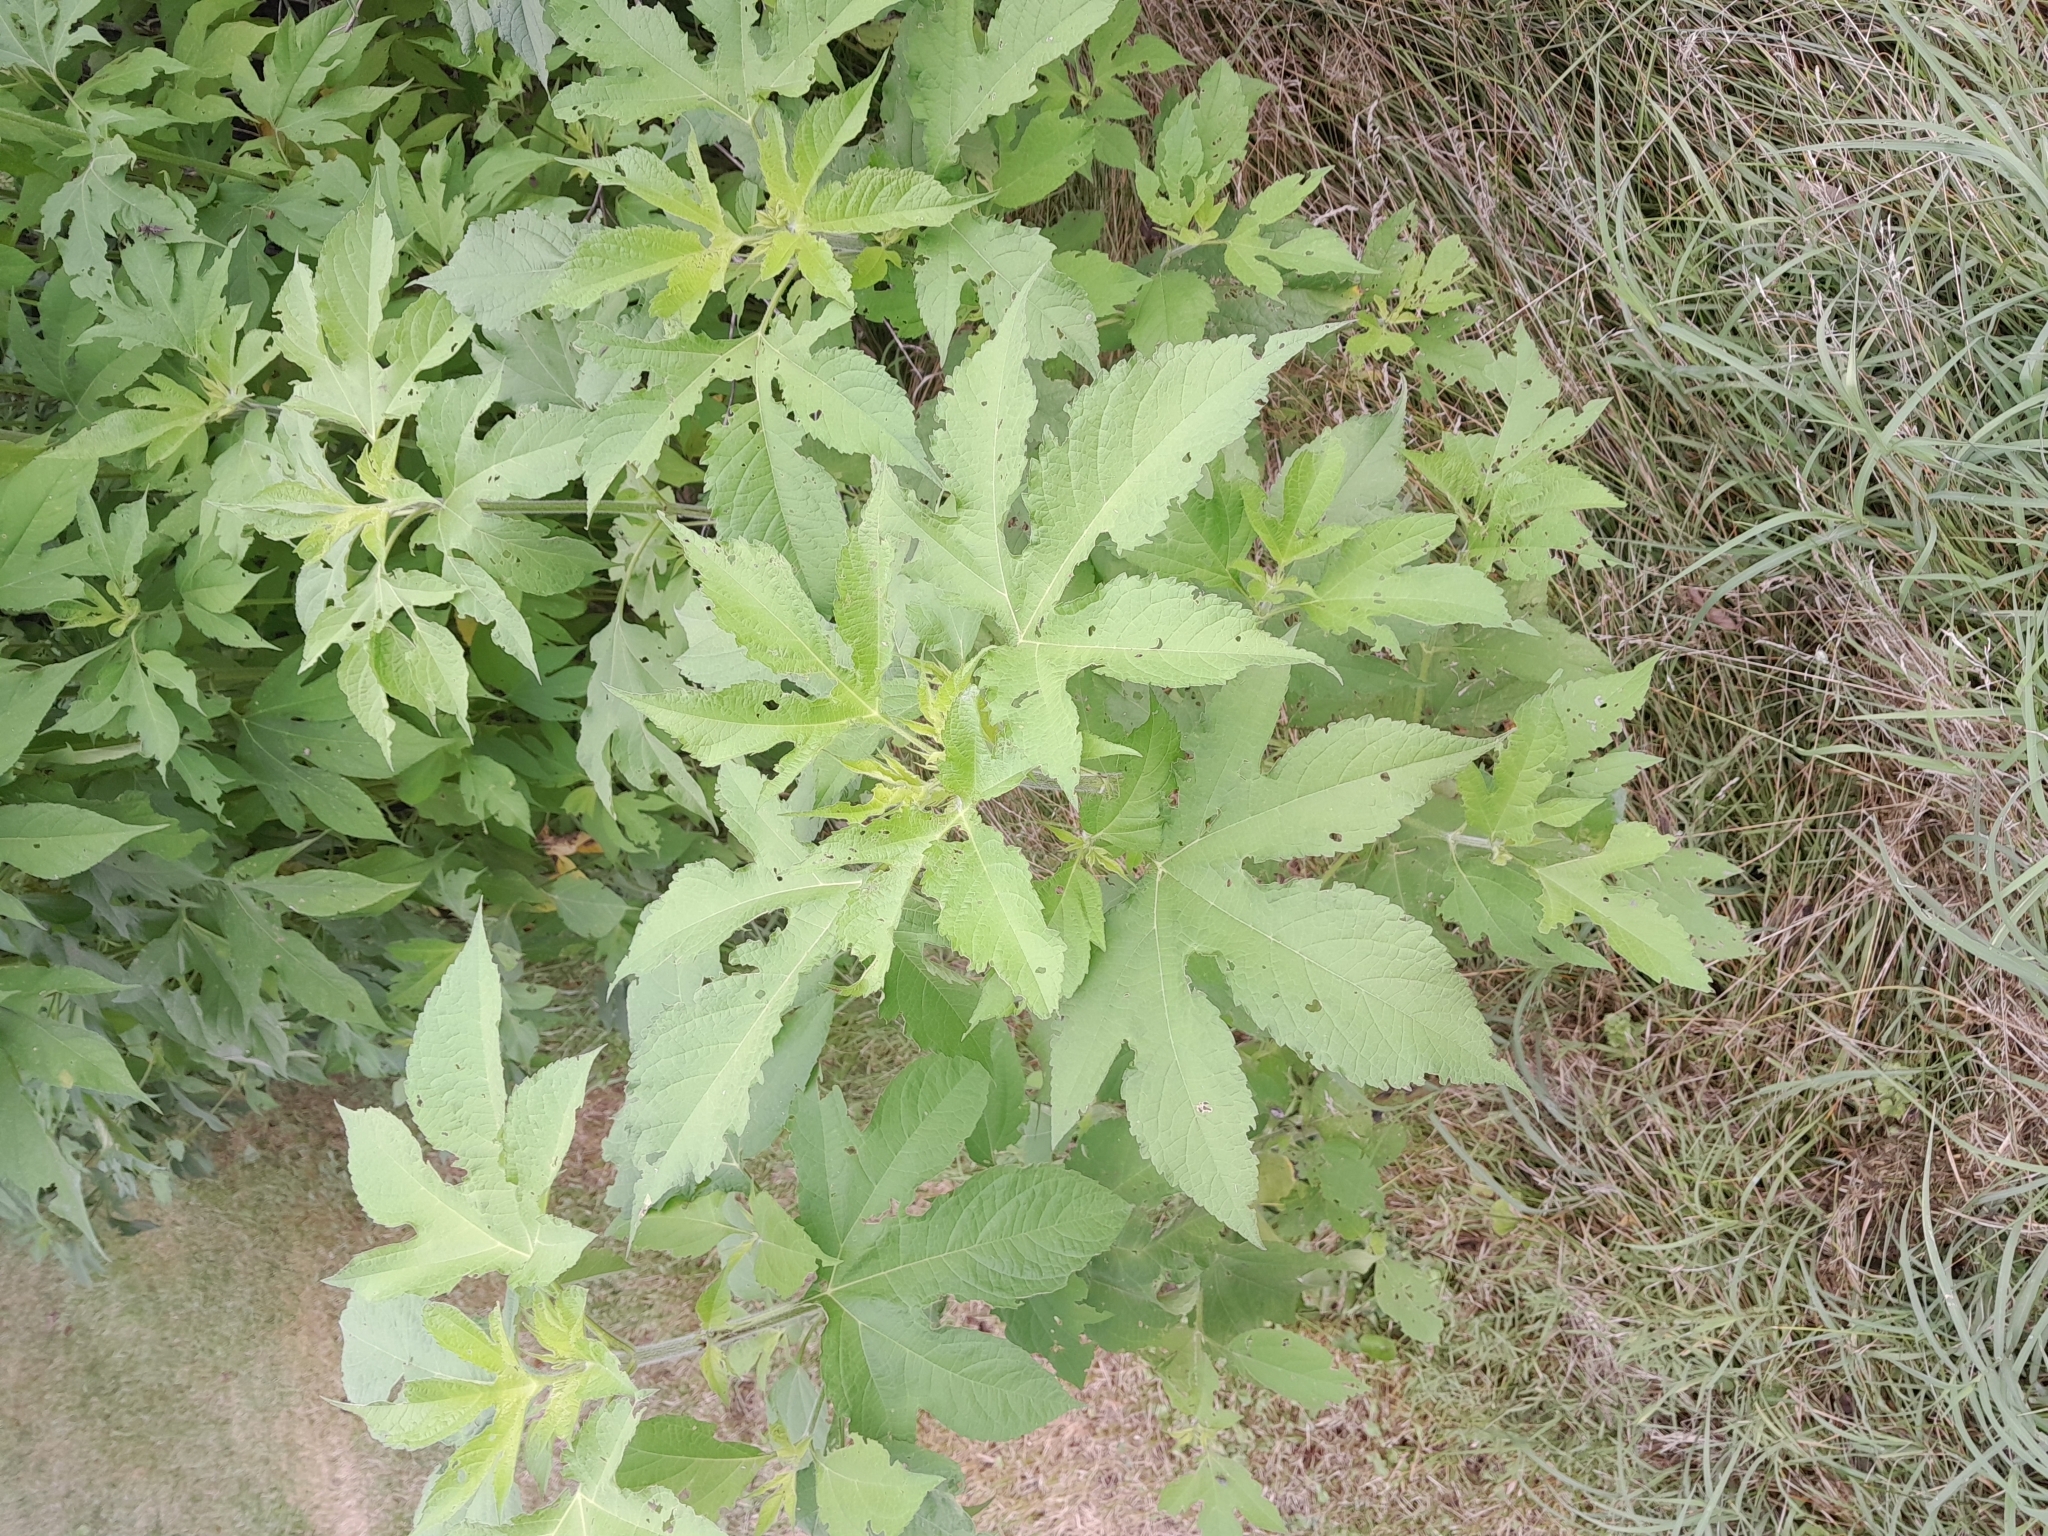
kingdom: Plantae
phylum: Tracheophyta
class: Magnoliopsida
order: Asterales
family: Asteraceae
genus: Ambrosia
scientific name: Ambrosia trifida
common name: Giant ragweed
